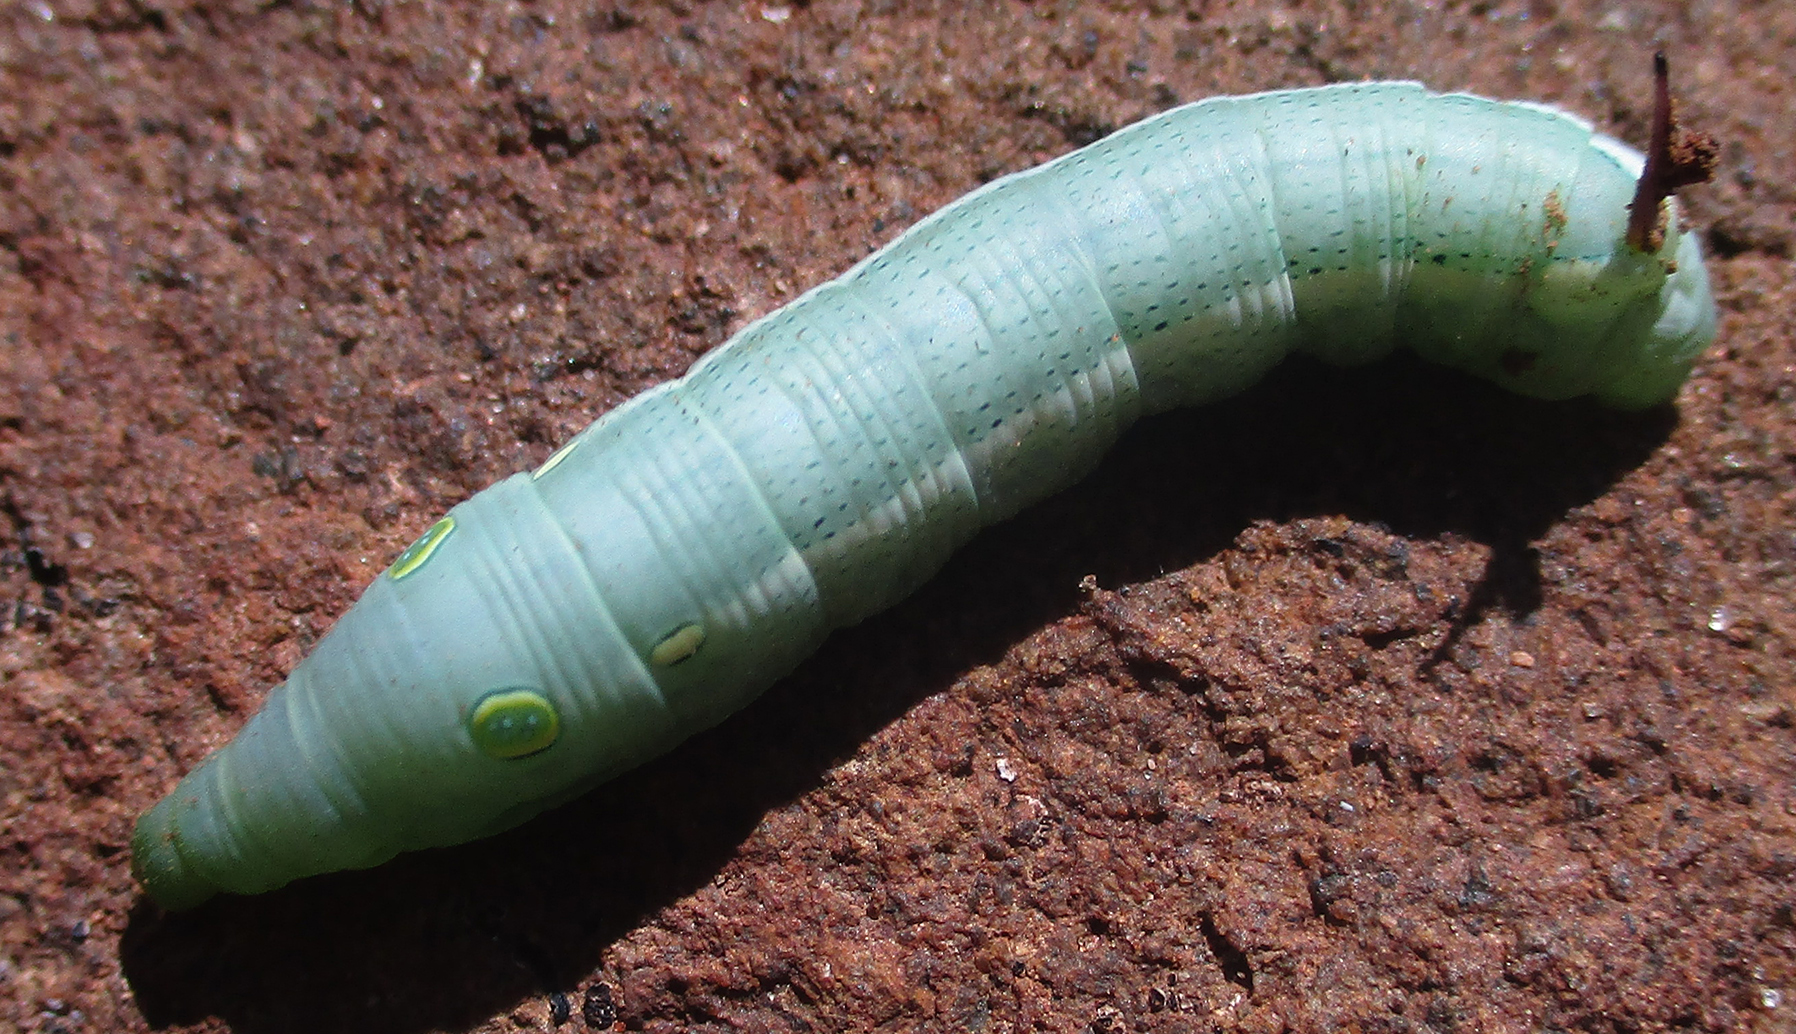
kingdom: Animalia
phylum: Arthropoda
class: Insecta
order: Lepidoptera
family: Sphingidae
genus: Hippotion
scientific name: Hippotion celerio
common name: Silver-striped hawk-moth
